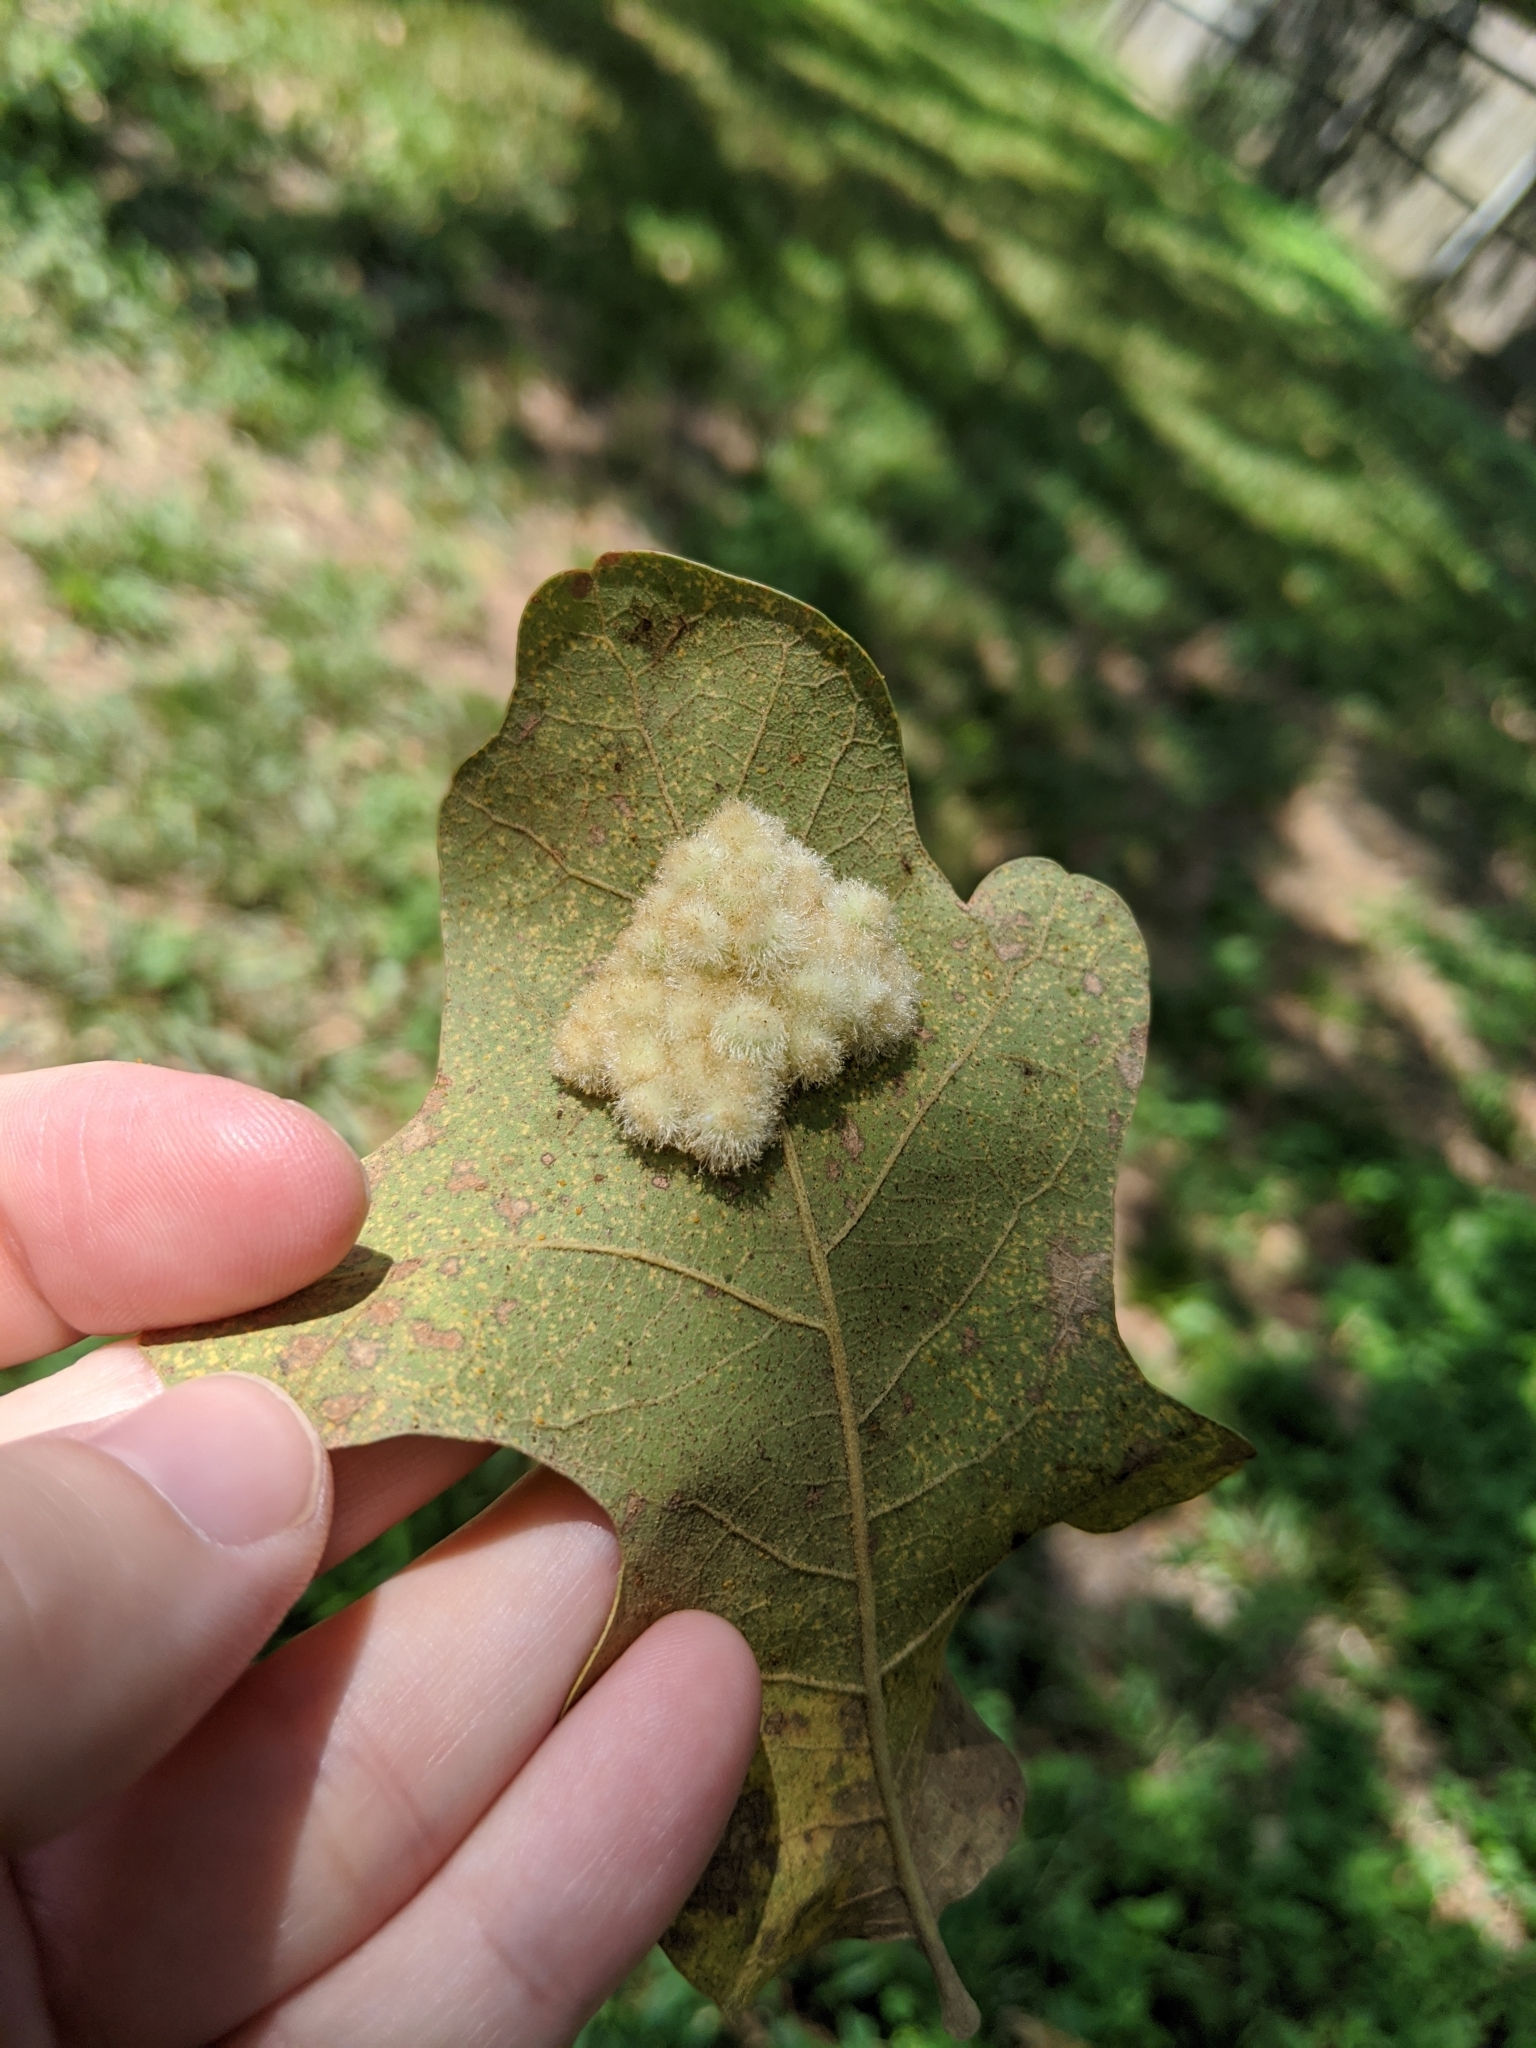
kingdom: Animalia
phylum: Arthropoda
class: Insecta
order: Hymenoptera
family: Cynipidae
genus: Andricus
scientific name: Andricus
